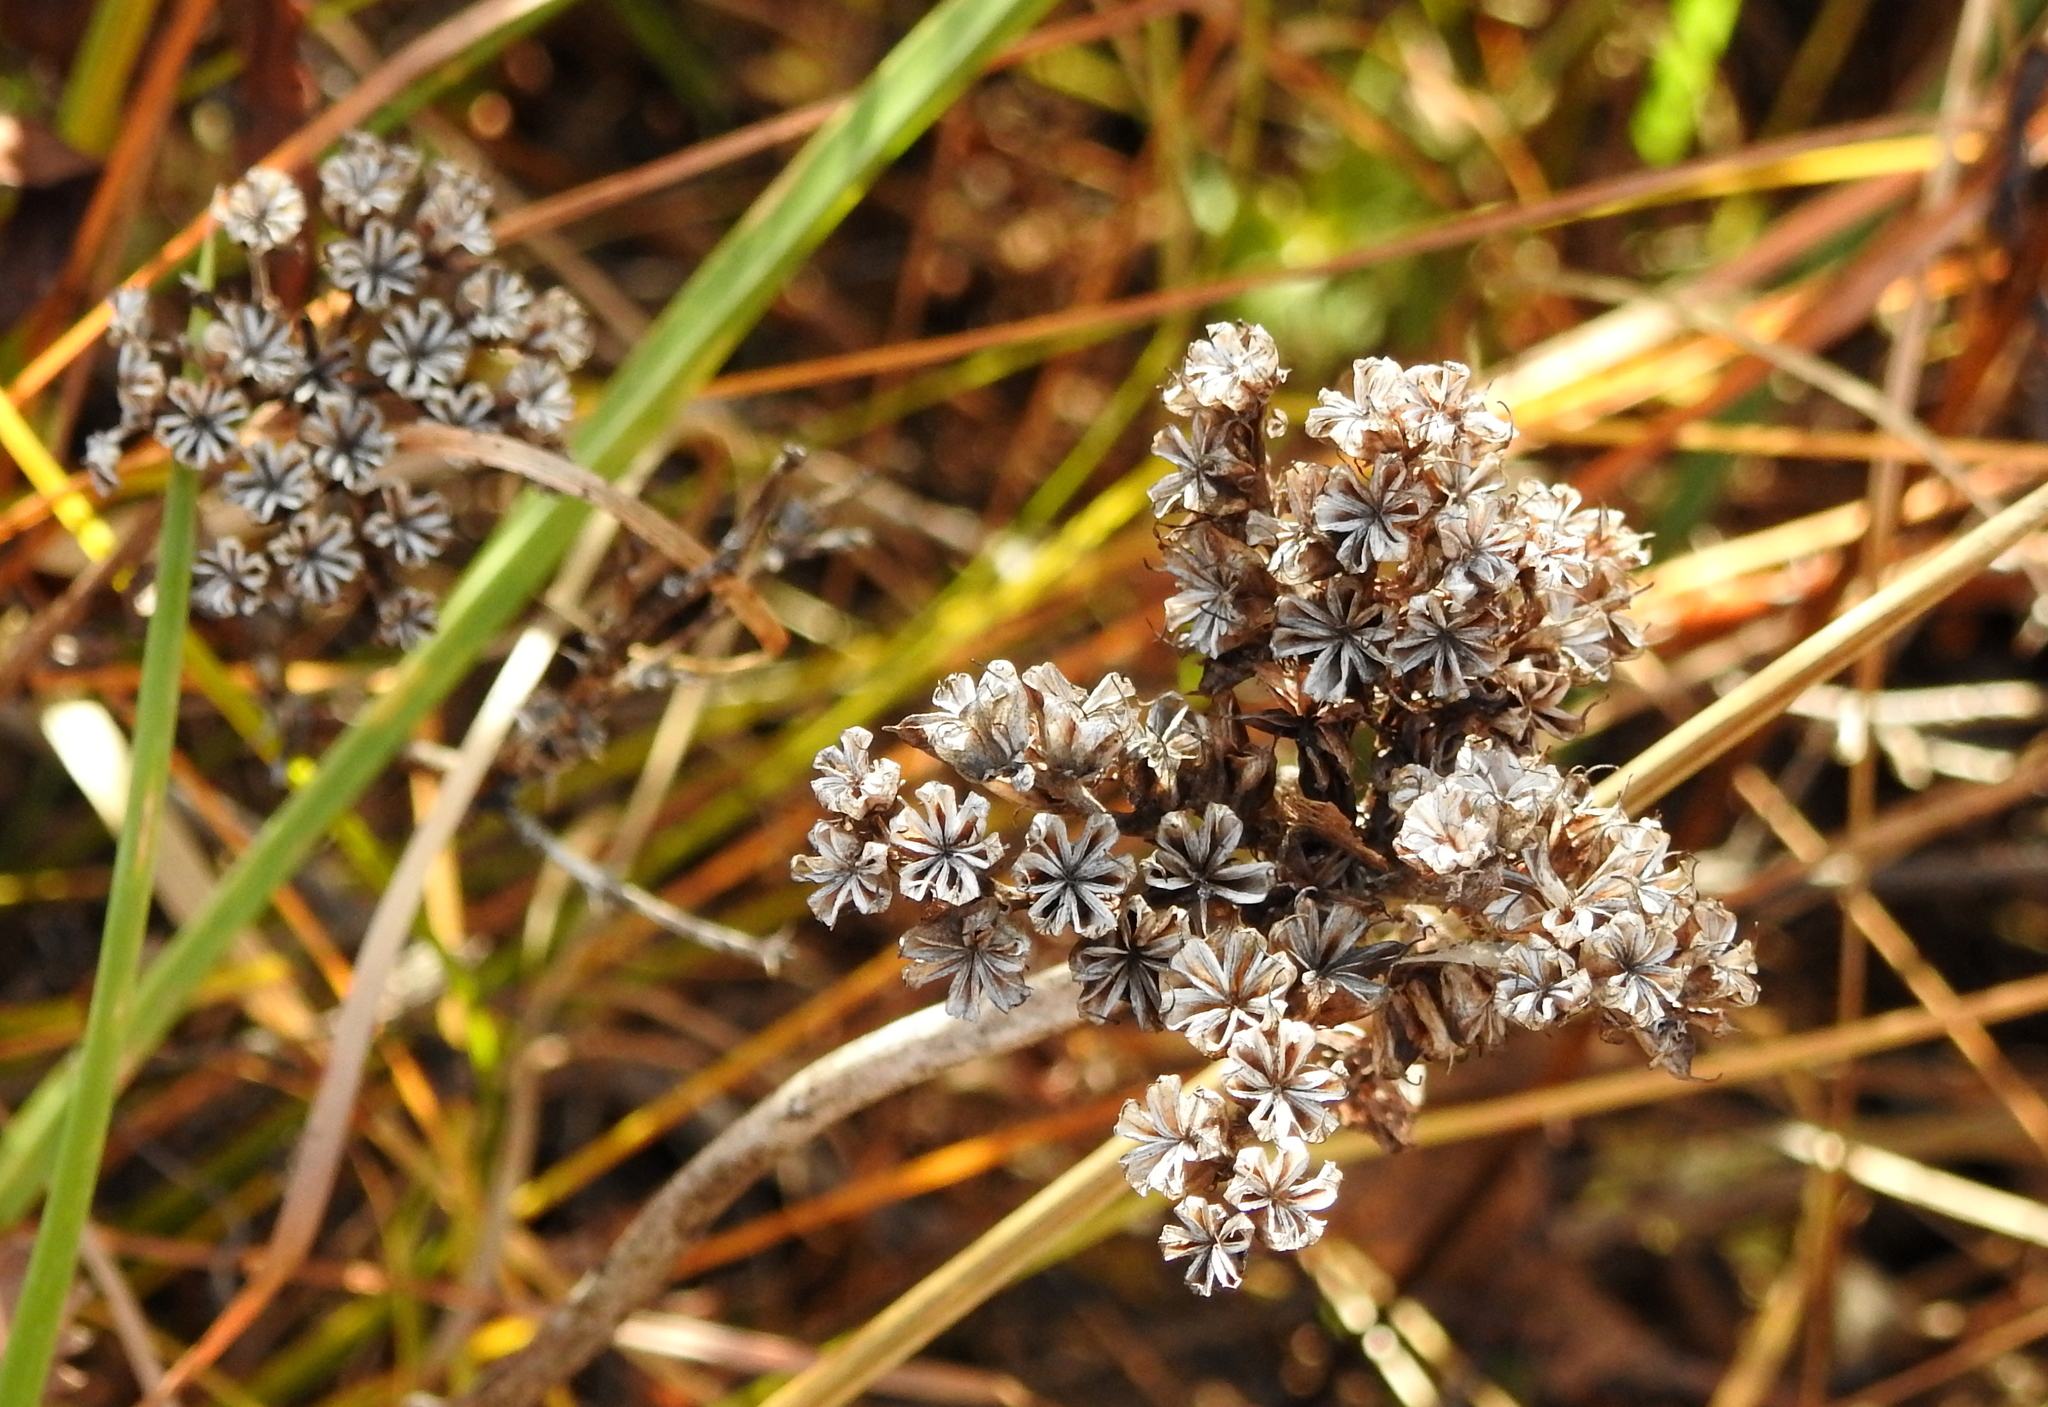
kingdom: Plantae
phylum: Tracheophyta
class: Magnoliopsida
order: Saxifragales
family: Crassulaceae
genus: Phedimus
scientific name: Phedimus aizoon
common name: Orpin aizoon
